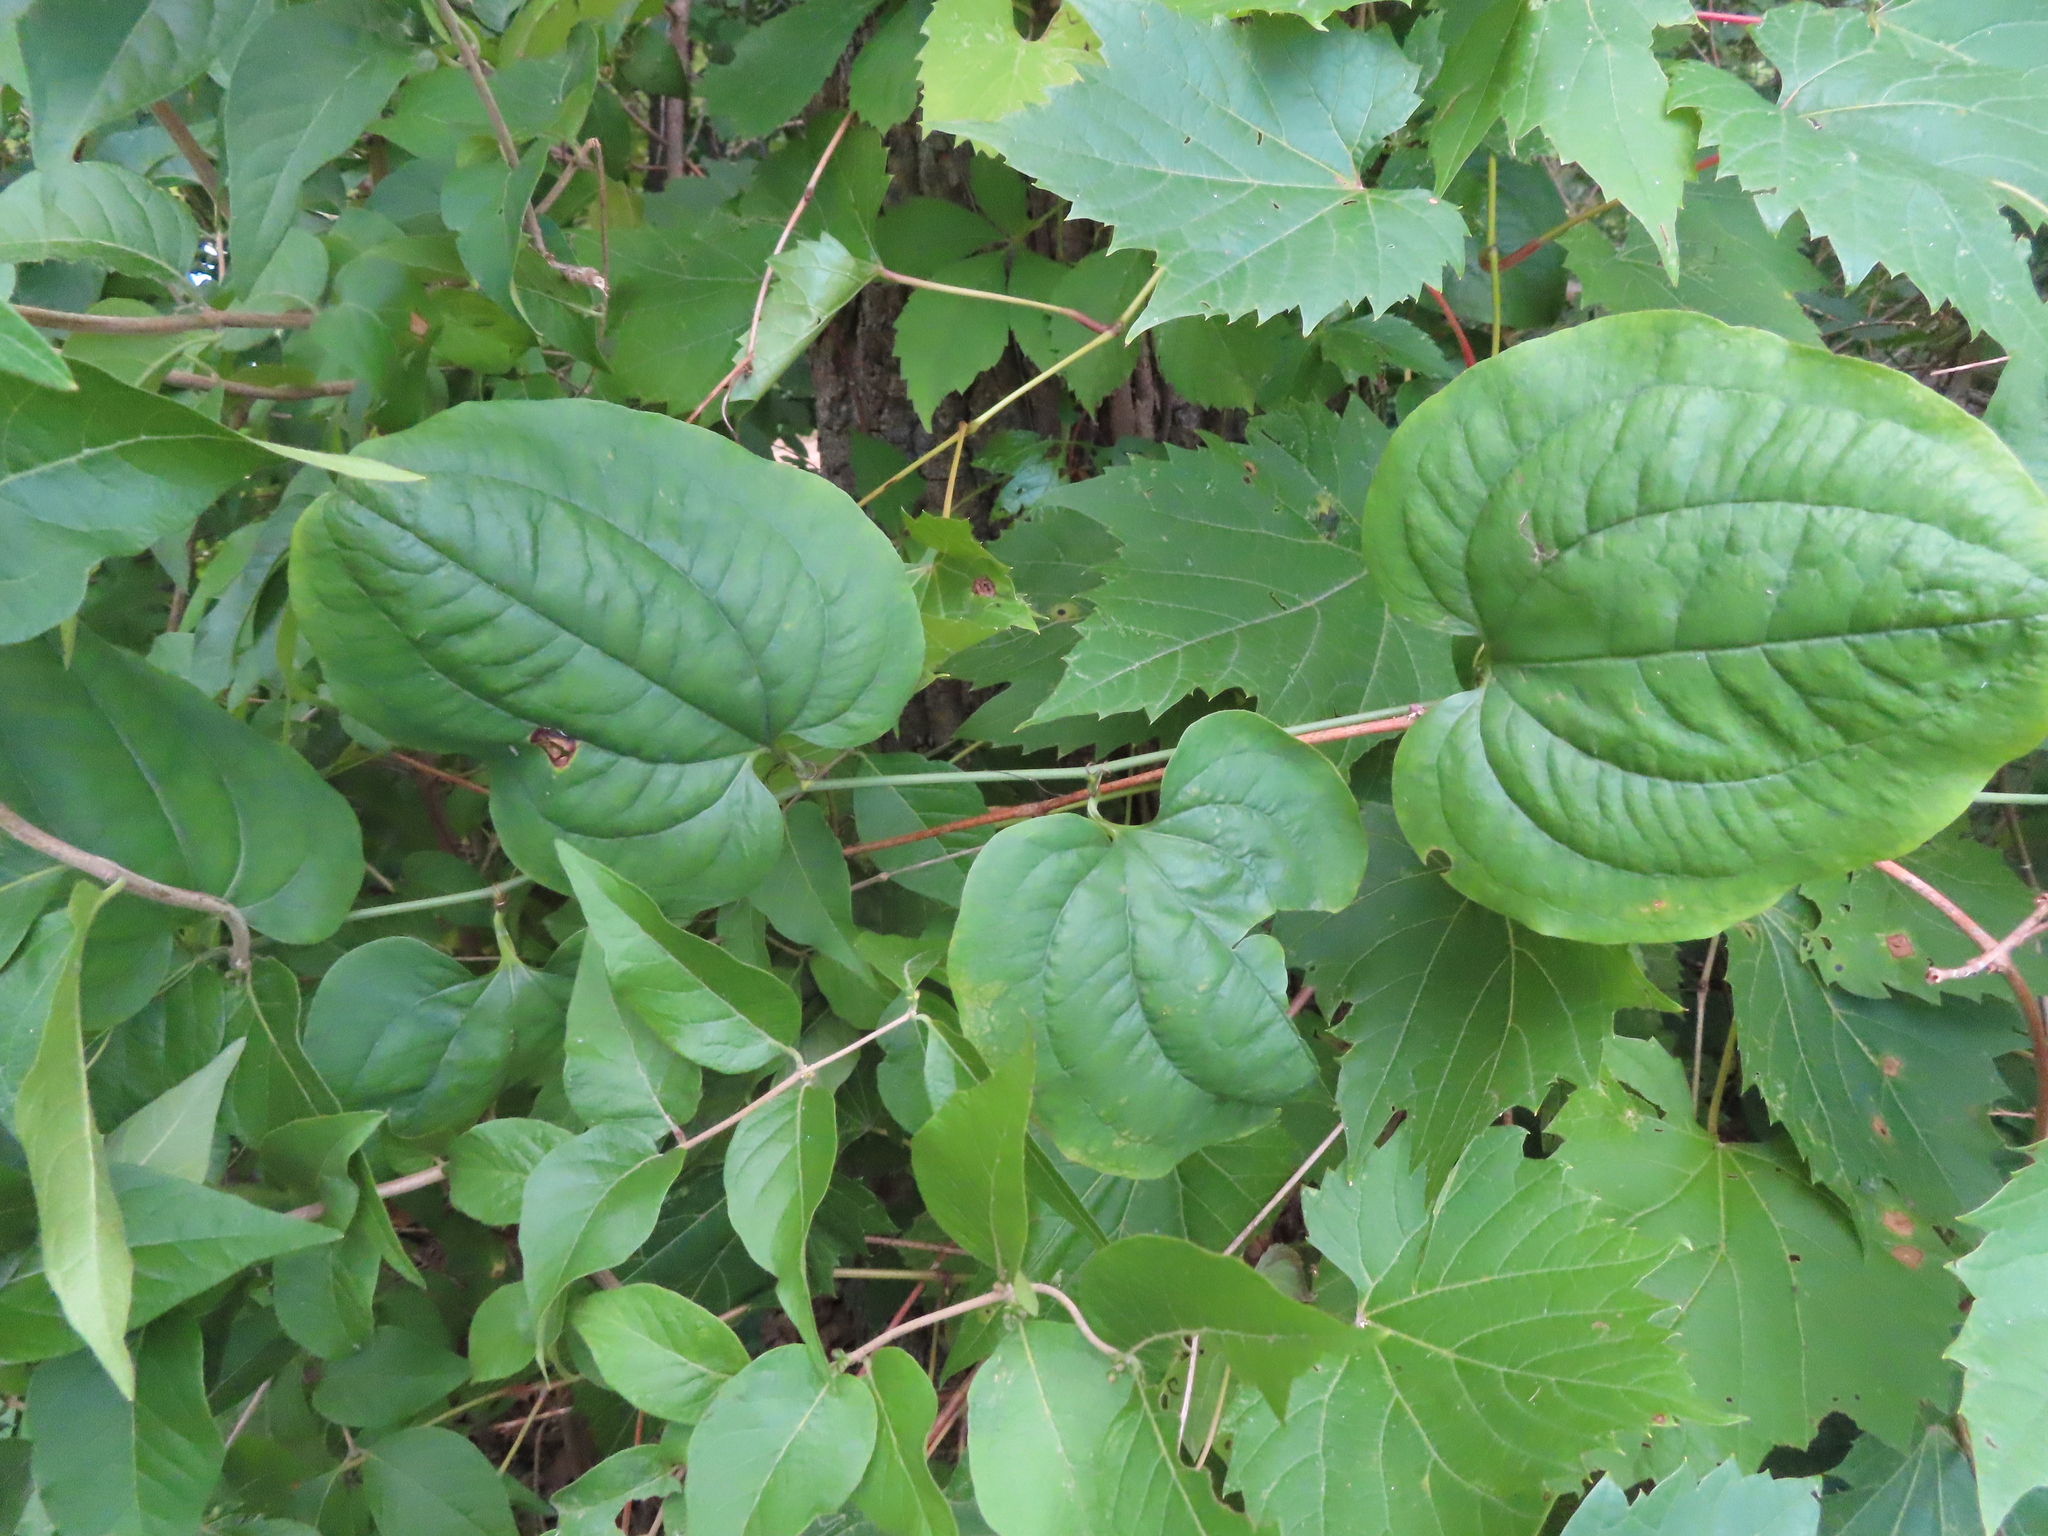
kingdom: Plantae
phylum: Tracheophyta
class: Liliopsida
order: Liliales
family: Smilacaceae
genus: Smilax
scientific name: Smilax tamnoides
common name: Hellfetter
